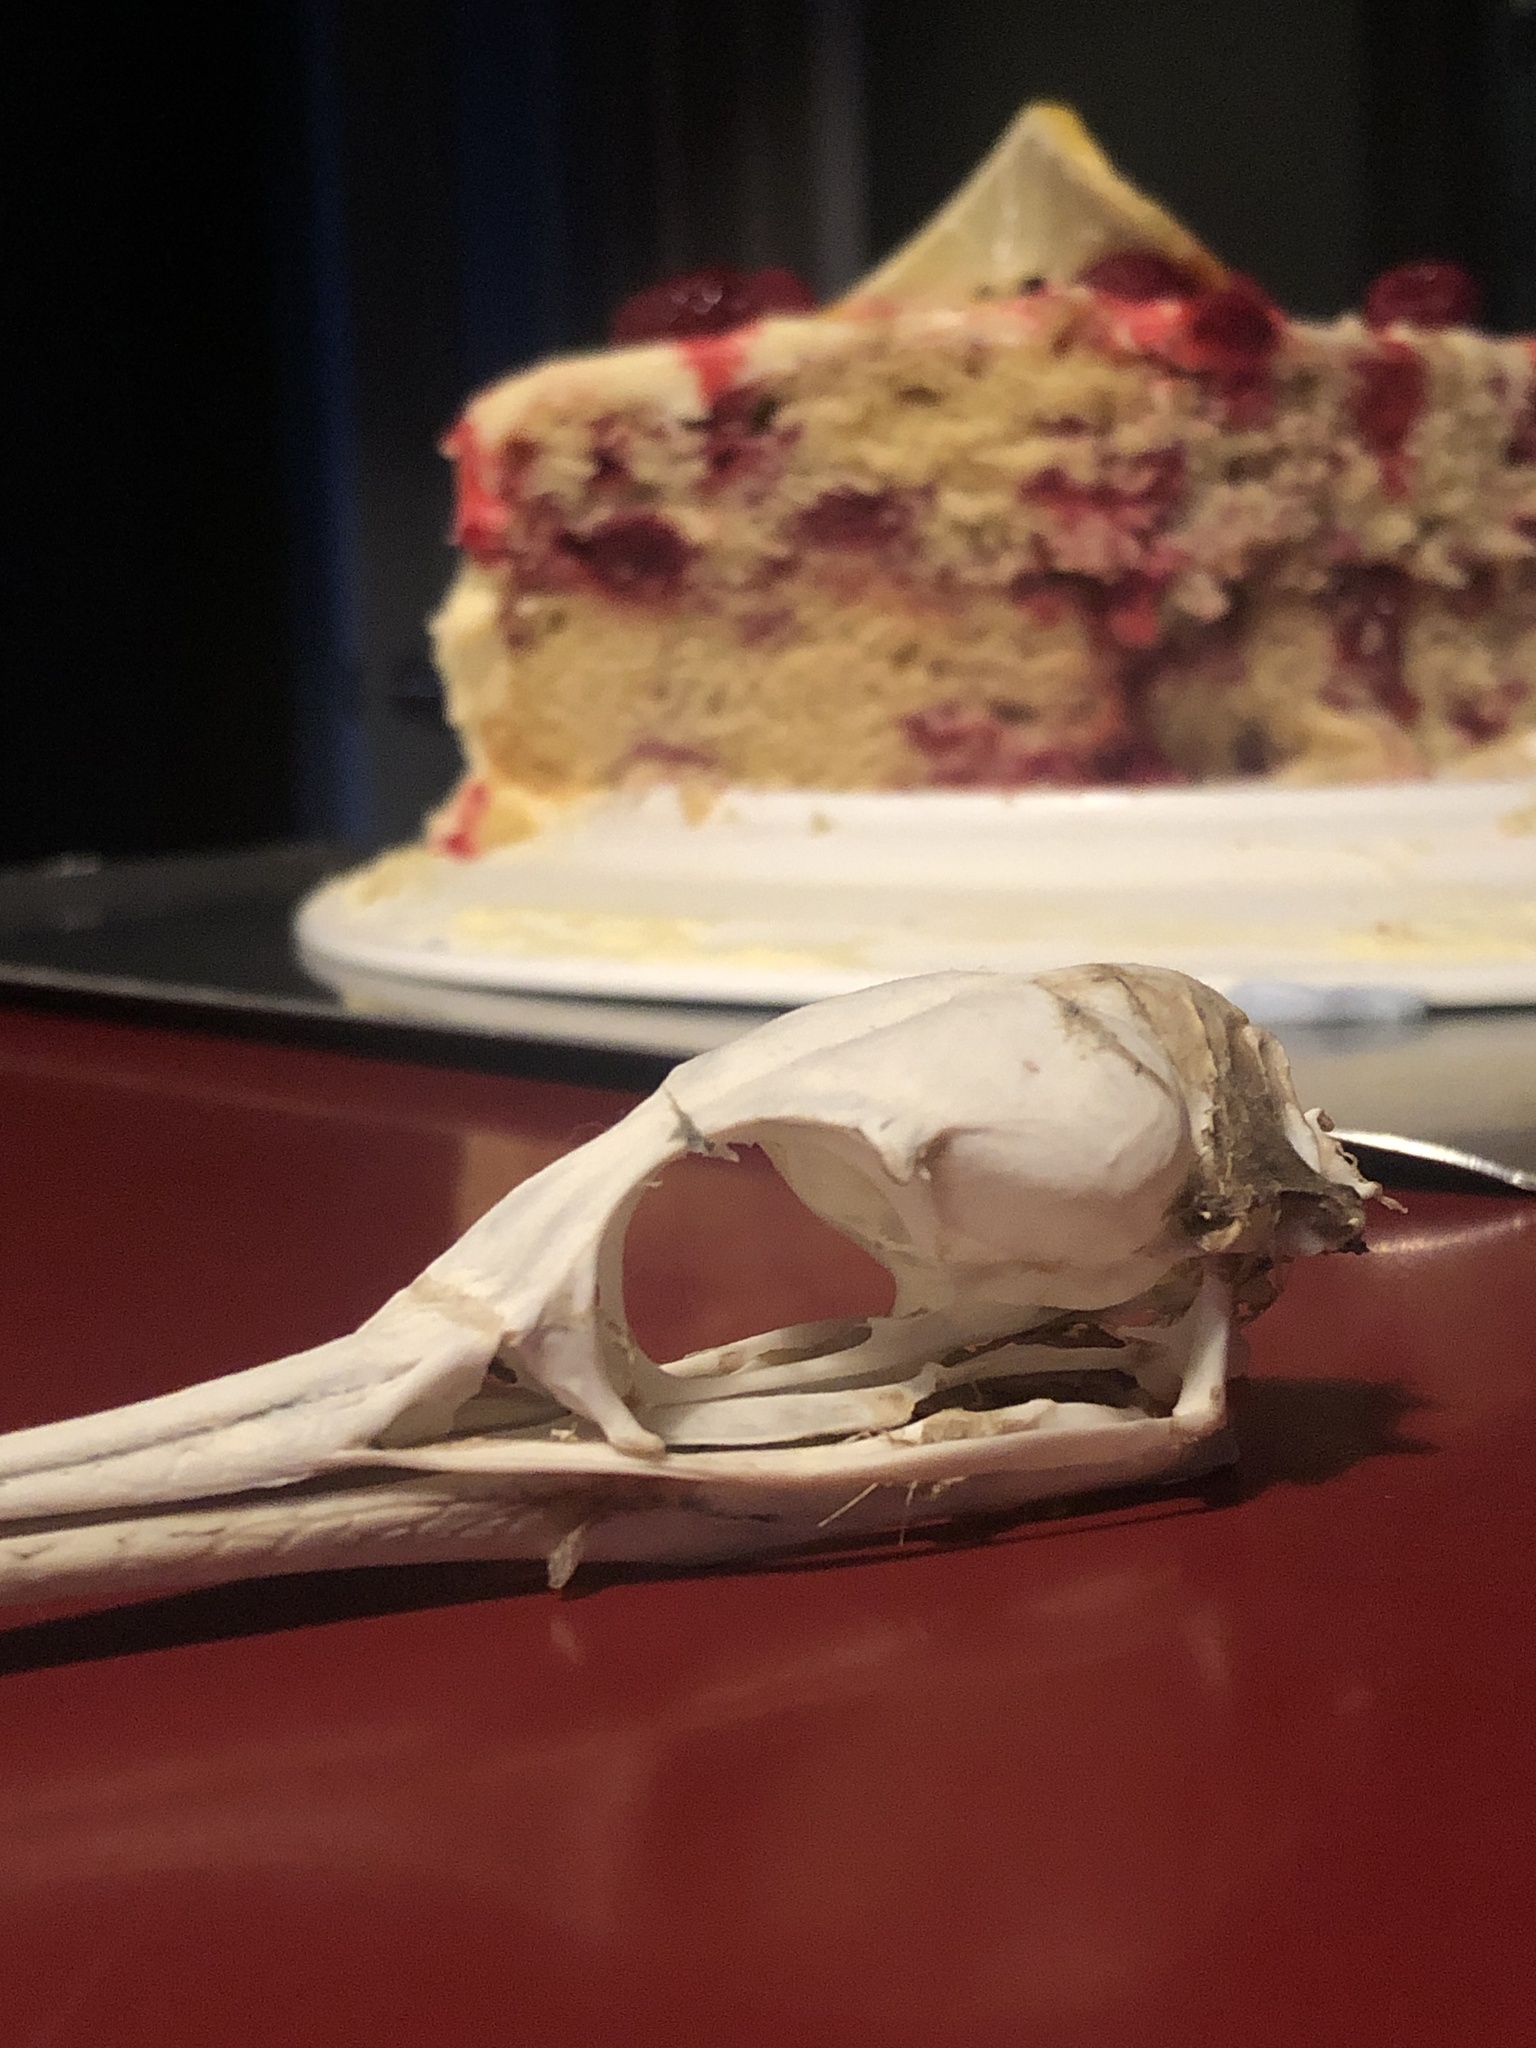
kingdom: Animalia
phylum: Chordata
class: Aves
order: Suliformes
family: Phalacrocoracidae
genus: Phalacrocorax
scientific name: Phalacrocorax punctatus
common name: Spotted shag
